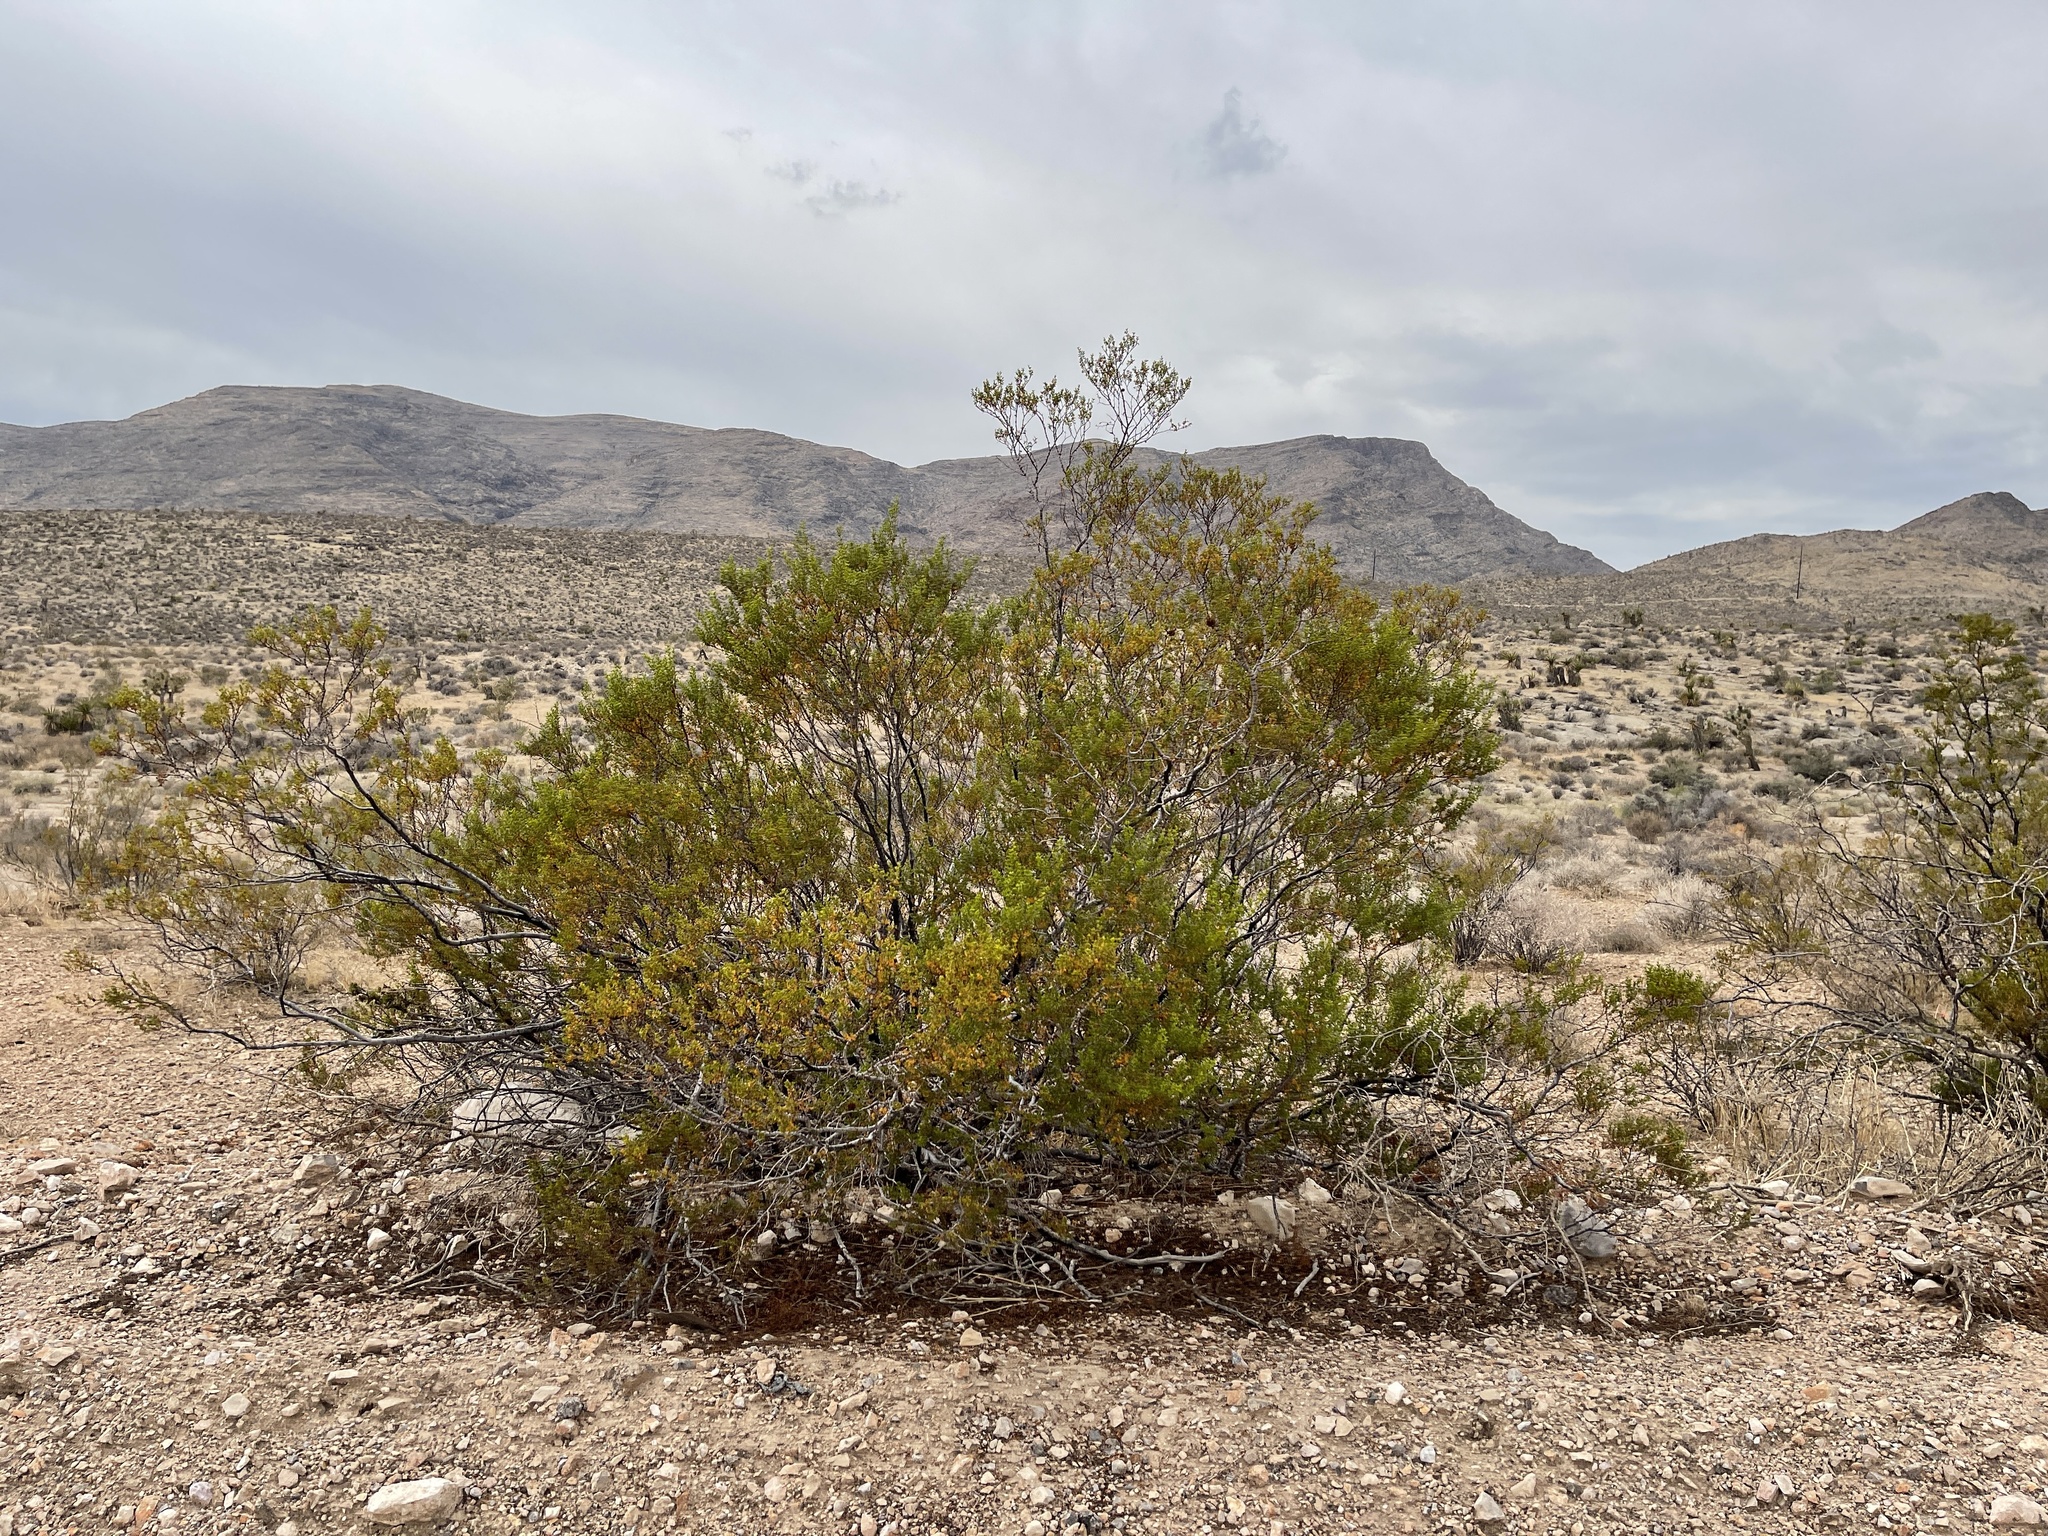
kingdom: Plantae
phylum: Tracheophyta
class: Magnoliopsida
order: Zygophyllales
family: Zygophyllaceae
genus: Larrea
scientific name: Larrea tridentata
